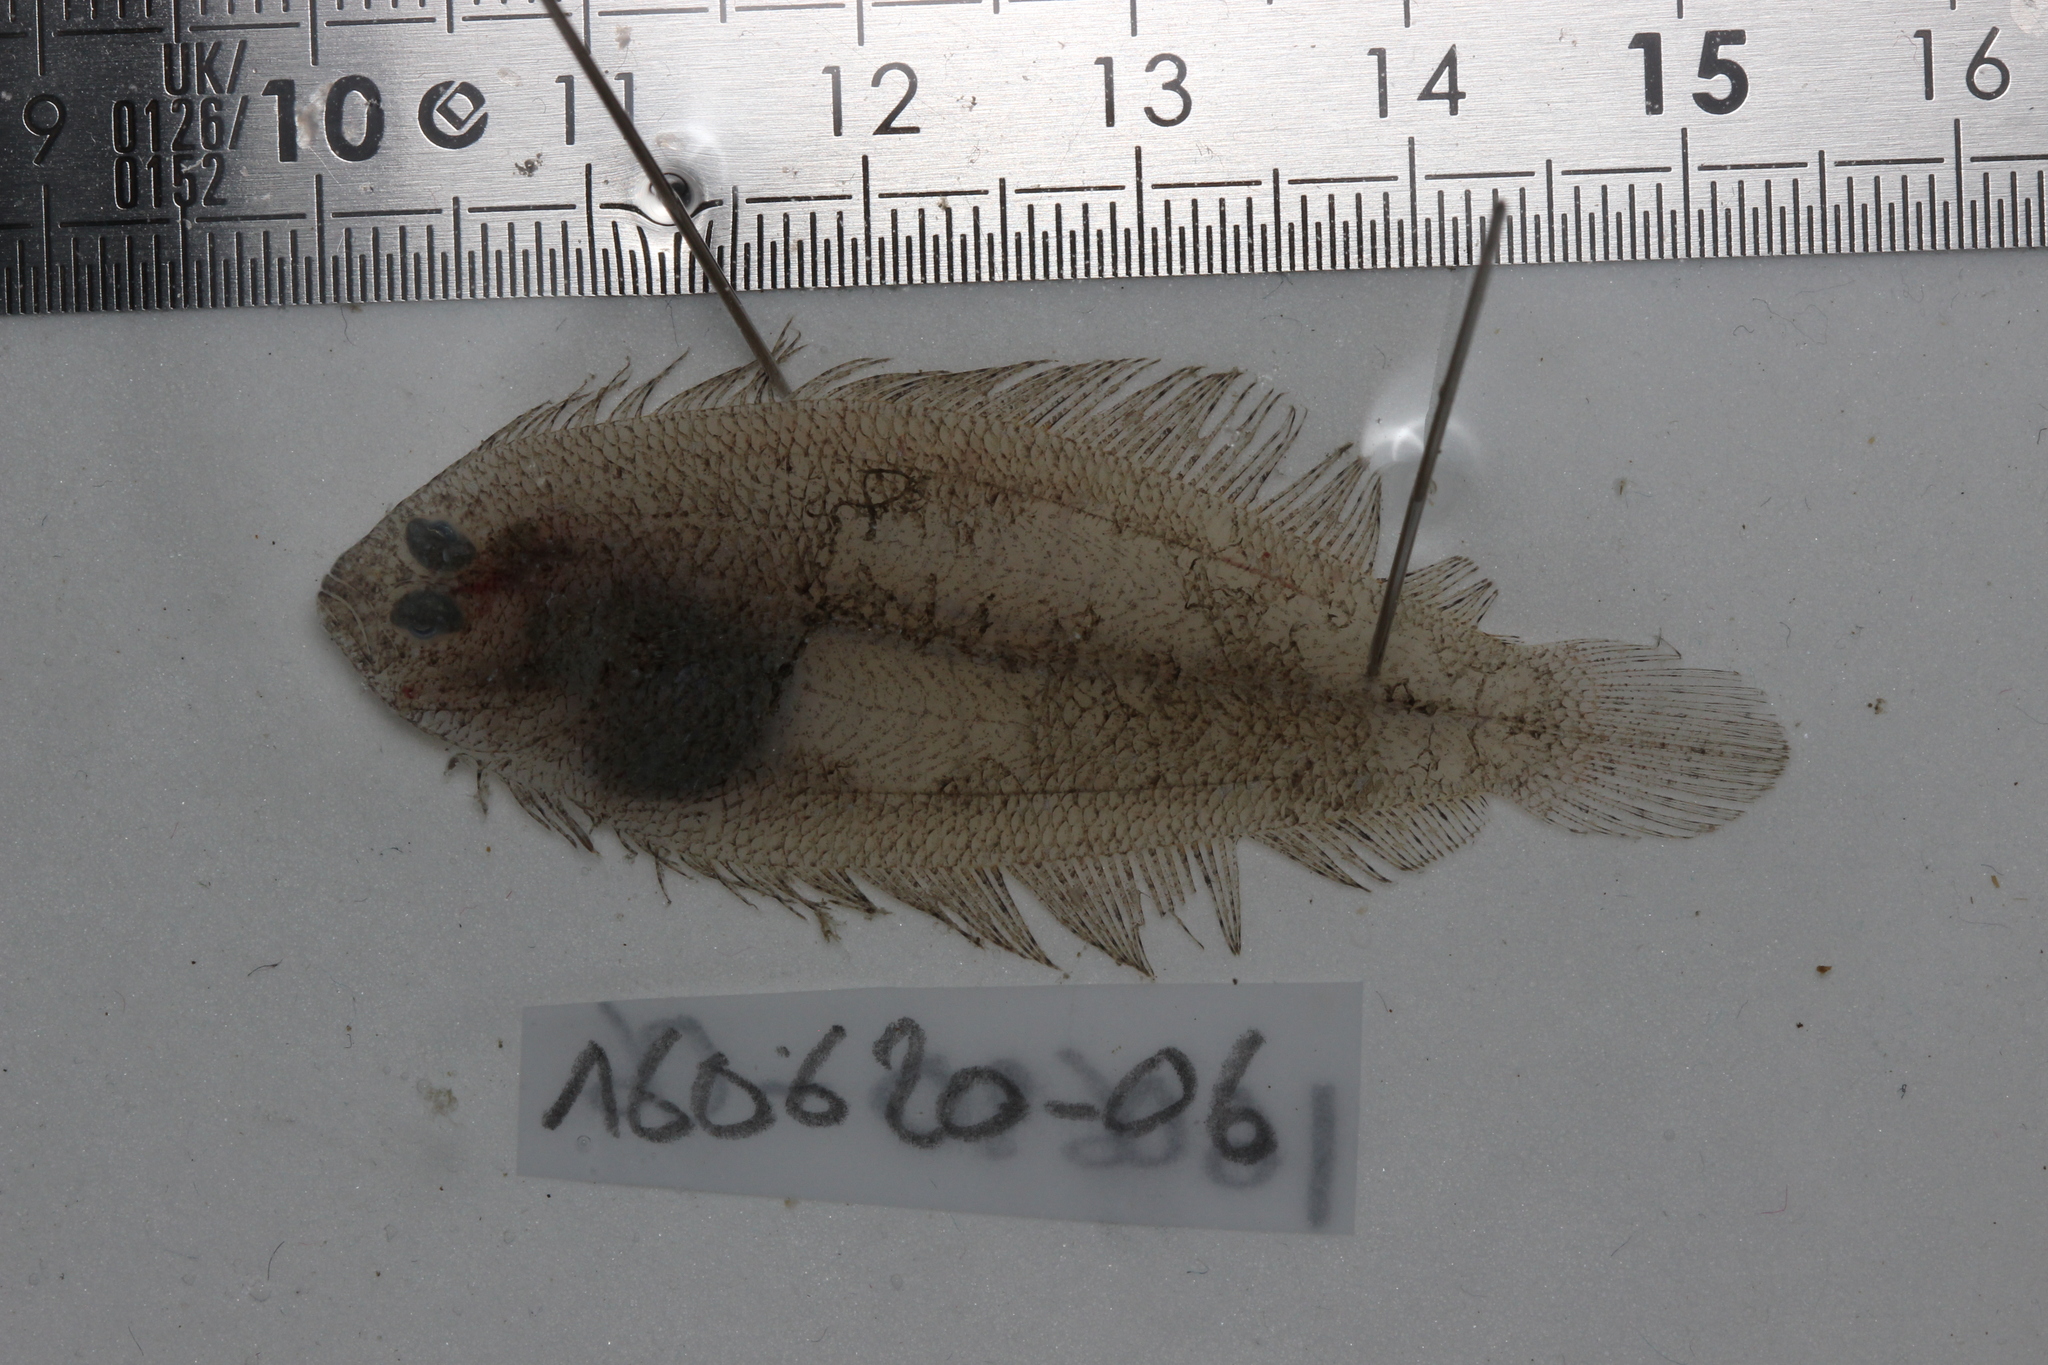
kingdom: Animalia
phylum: Chordata
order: Pleuronectiformes
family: Bothidae
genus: Arnoglossus
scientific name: Arnoglossus laterna
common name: Scaldfish
